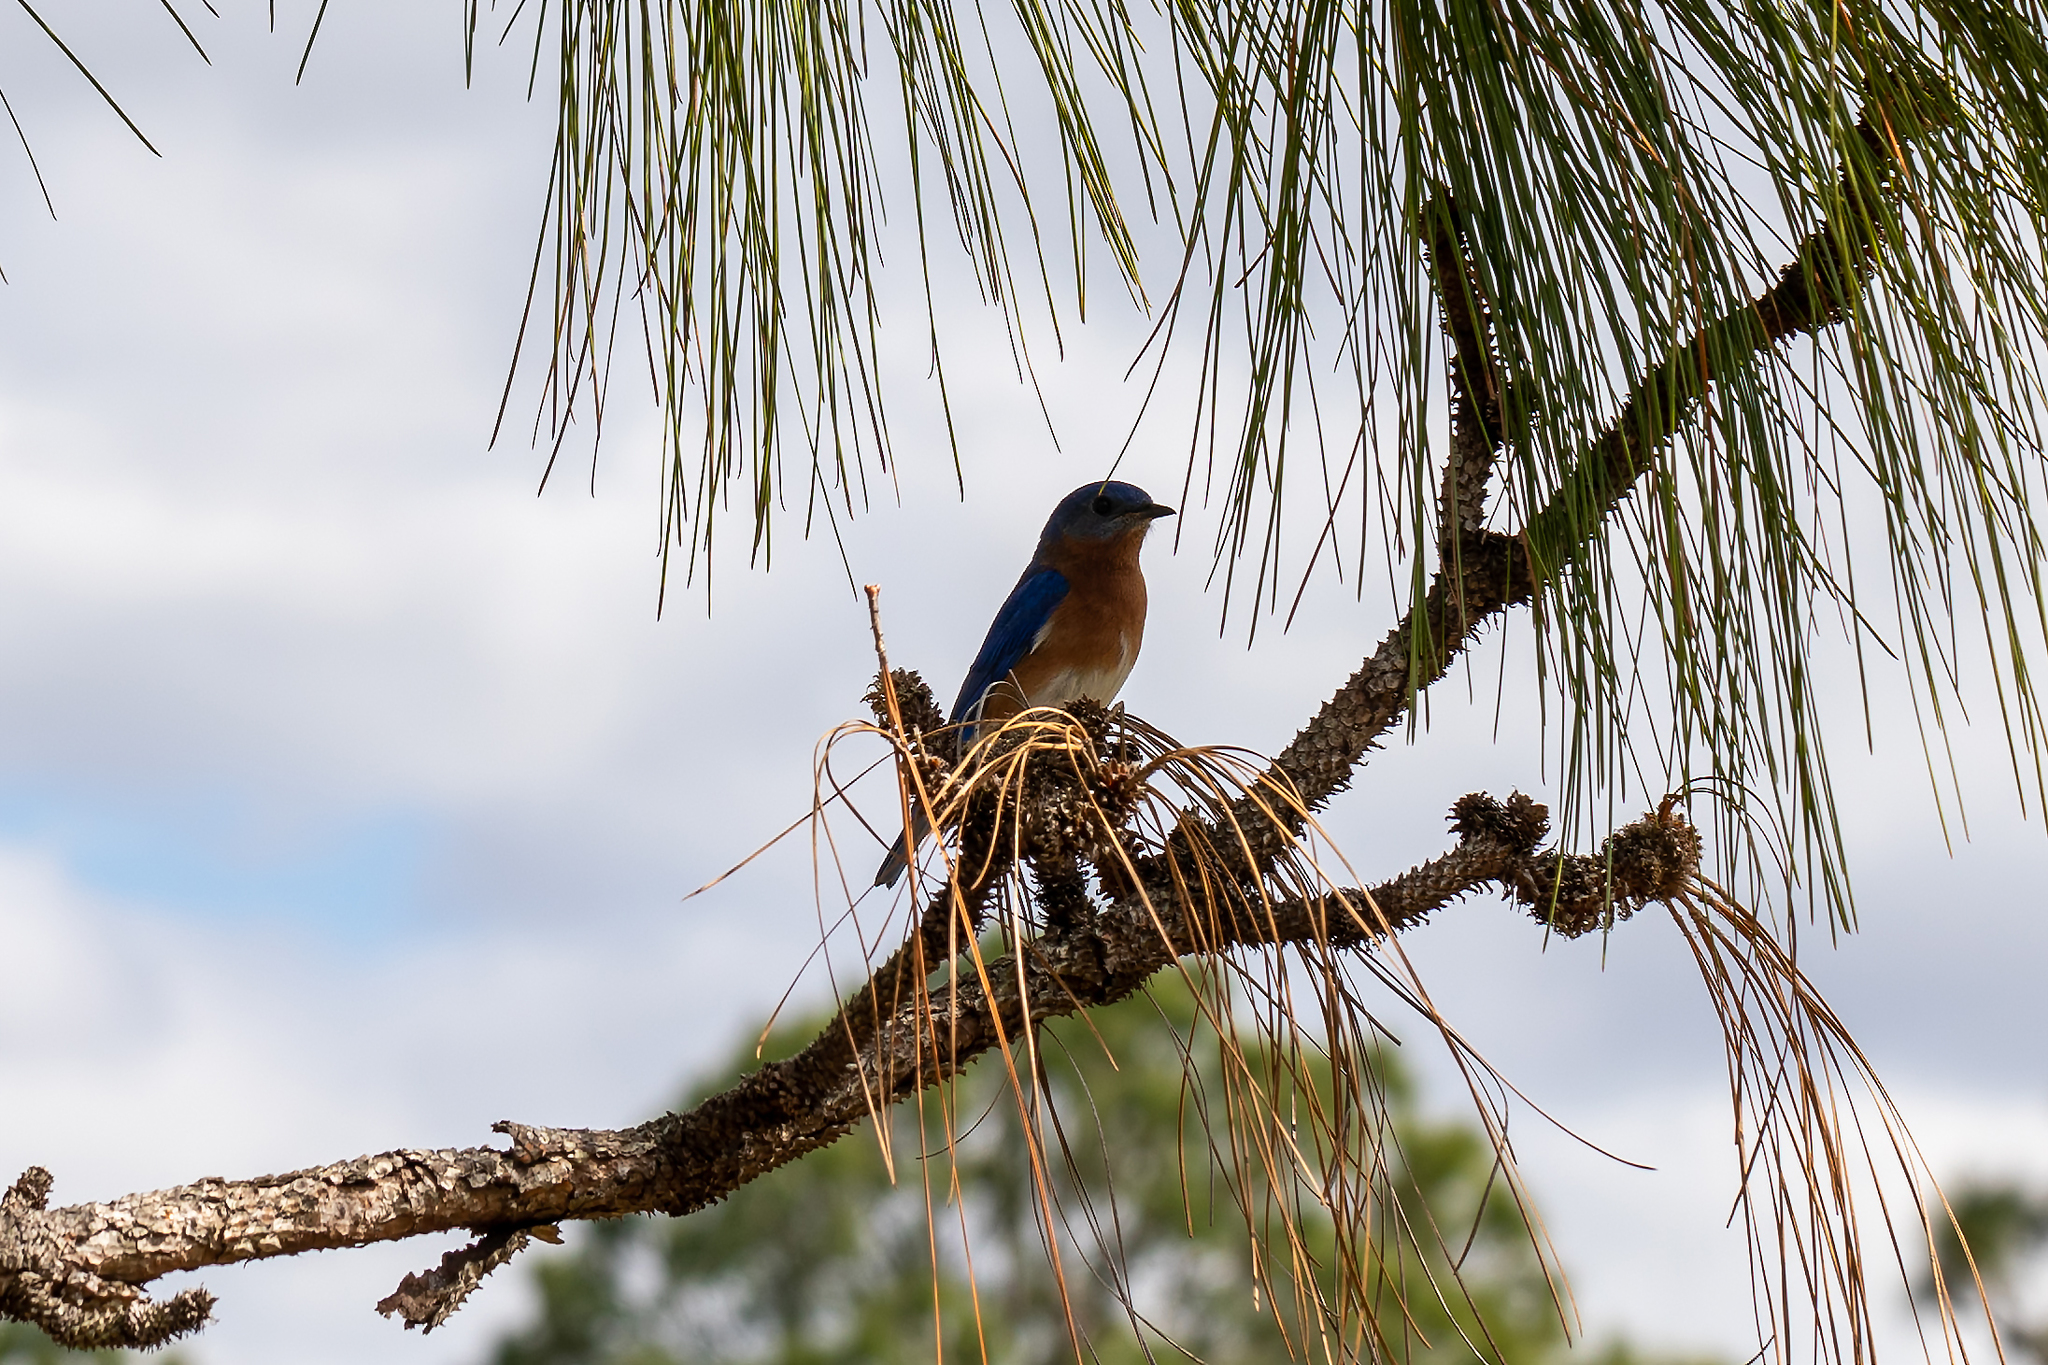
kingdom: Animalia
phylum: Chordata
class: Aves
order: Passeriformes
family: Turdidae
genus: Sialia
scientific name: Sialia sialis
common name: Eastern bluebird
